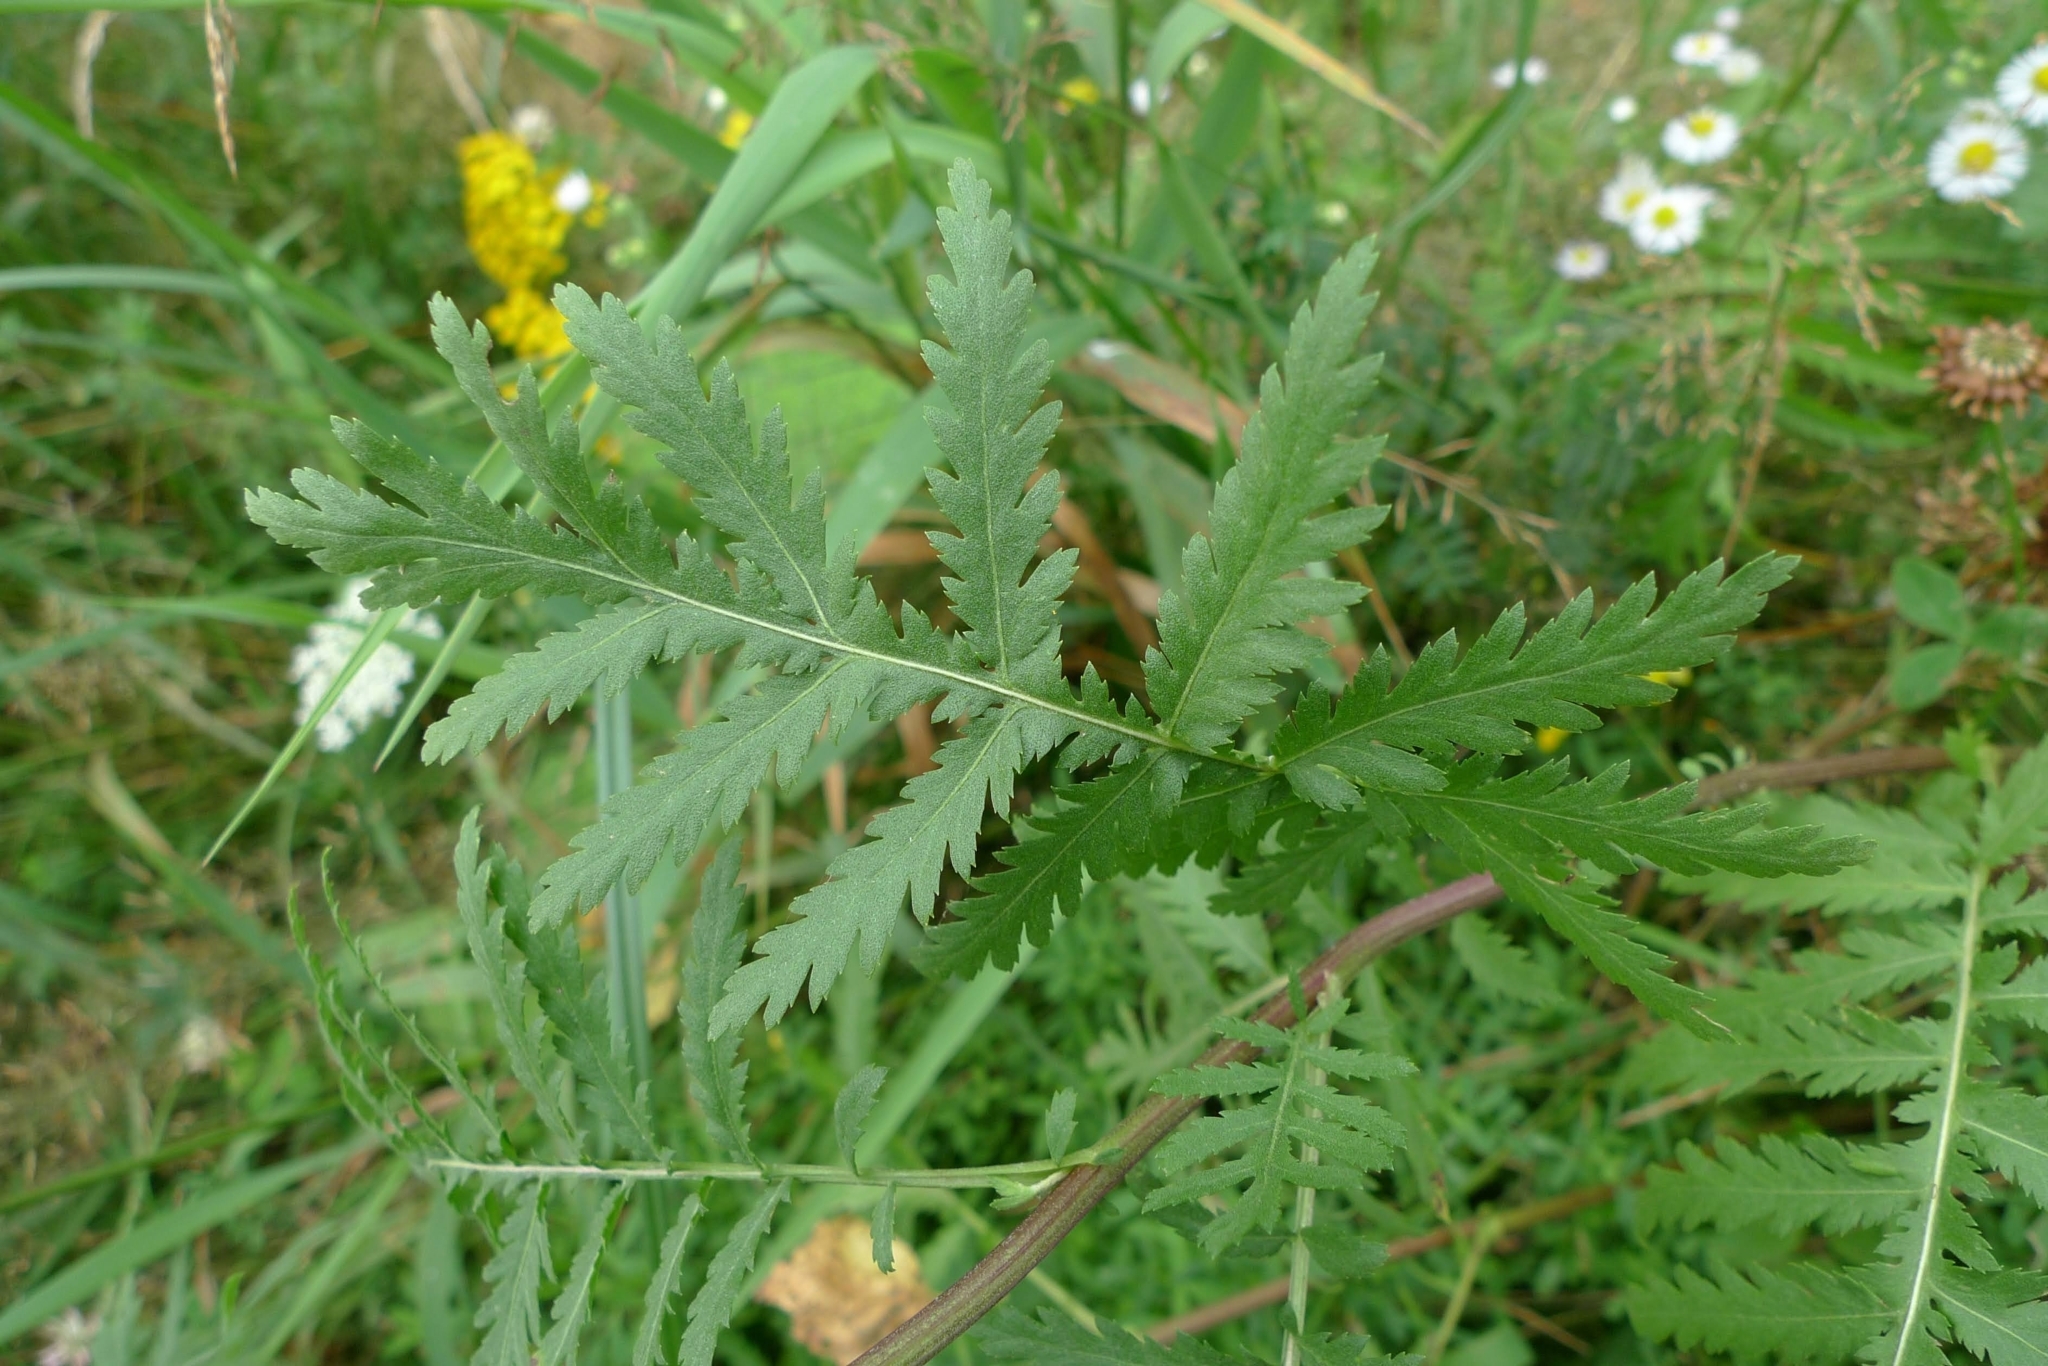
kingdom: Plantae
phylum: Tracheophyta
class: Magnoliopsida
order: Asterales
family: Asteraceae
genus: Tanacetum
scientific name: Tanacetum vulgare
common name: Common tansy
